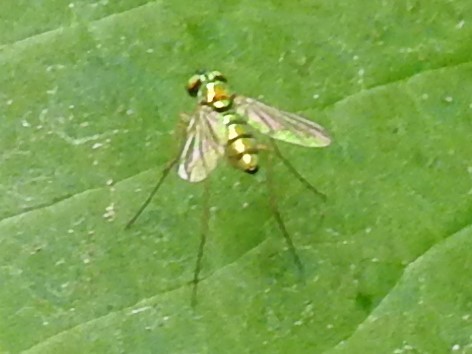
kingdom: Animalia
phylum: Arthropoda
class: Insecta
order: Diptera
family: Dolichopodidae
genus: Amblypsilopus
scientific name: Amblypsilopus scintillans
